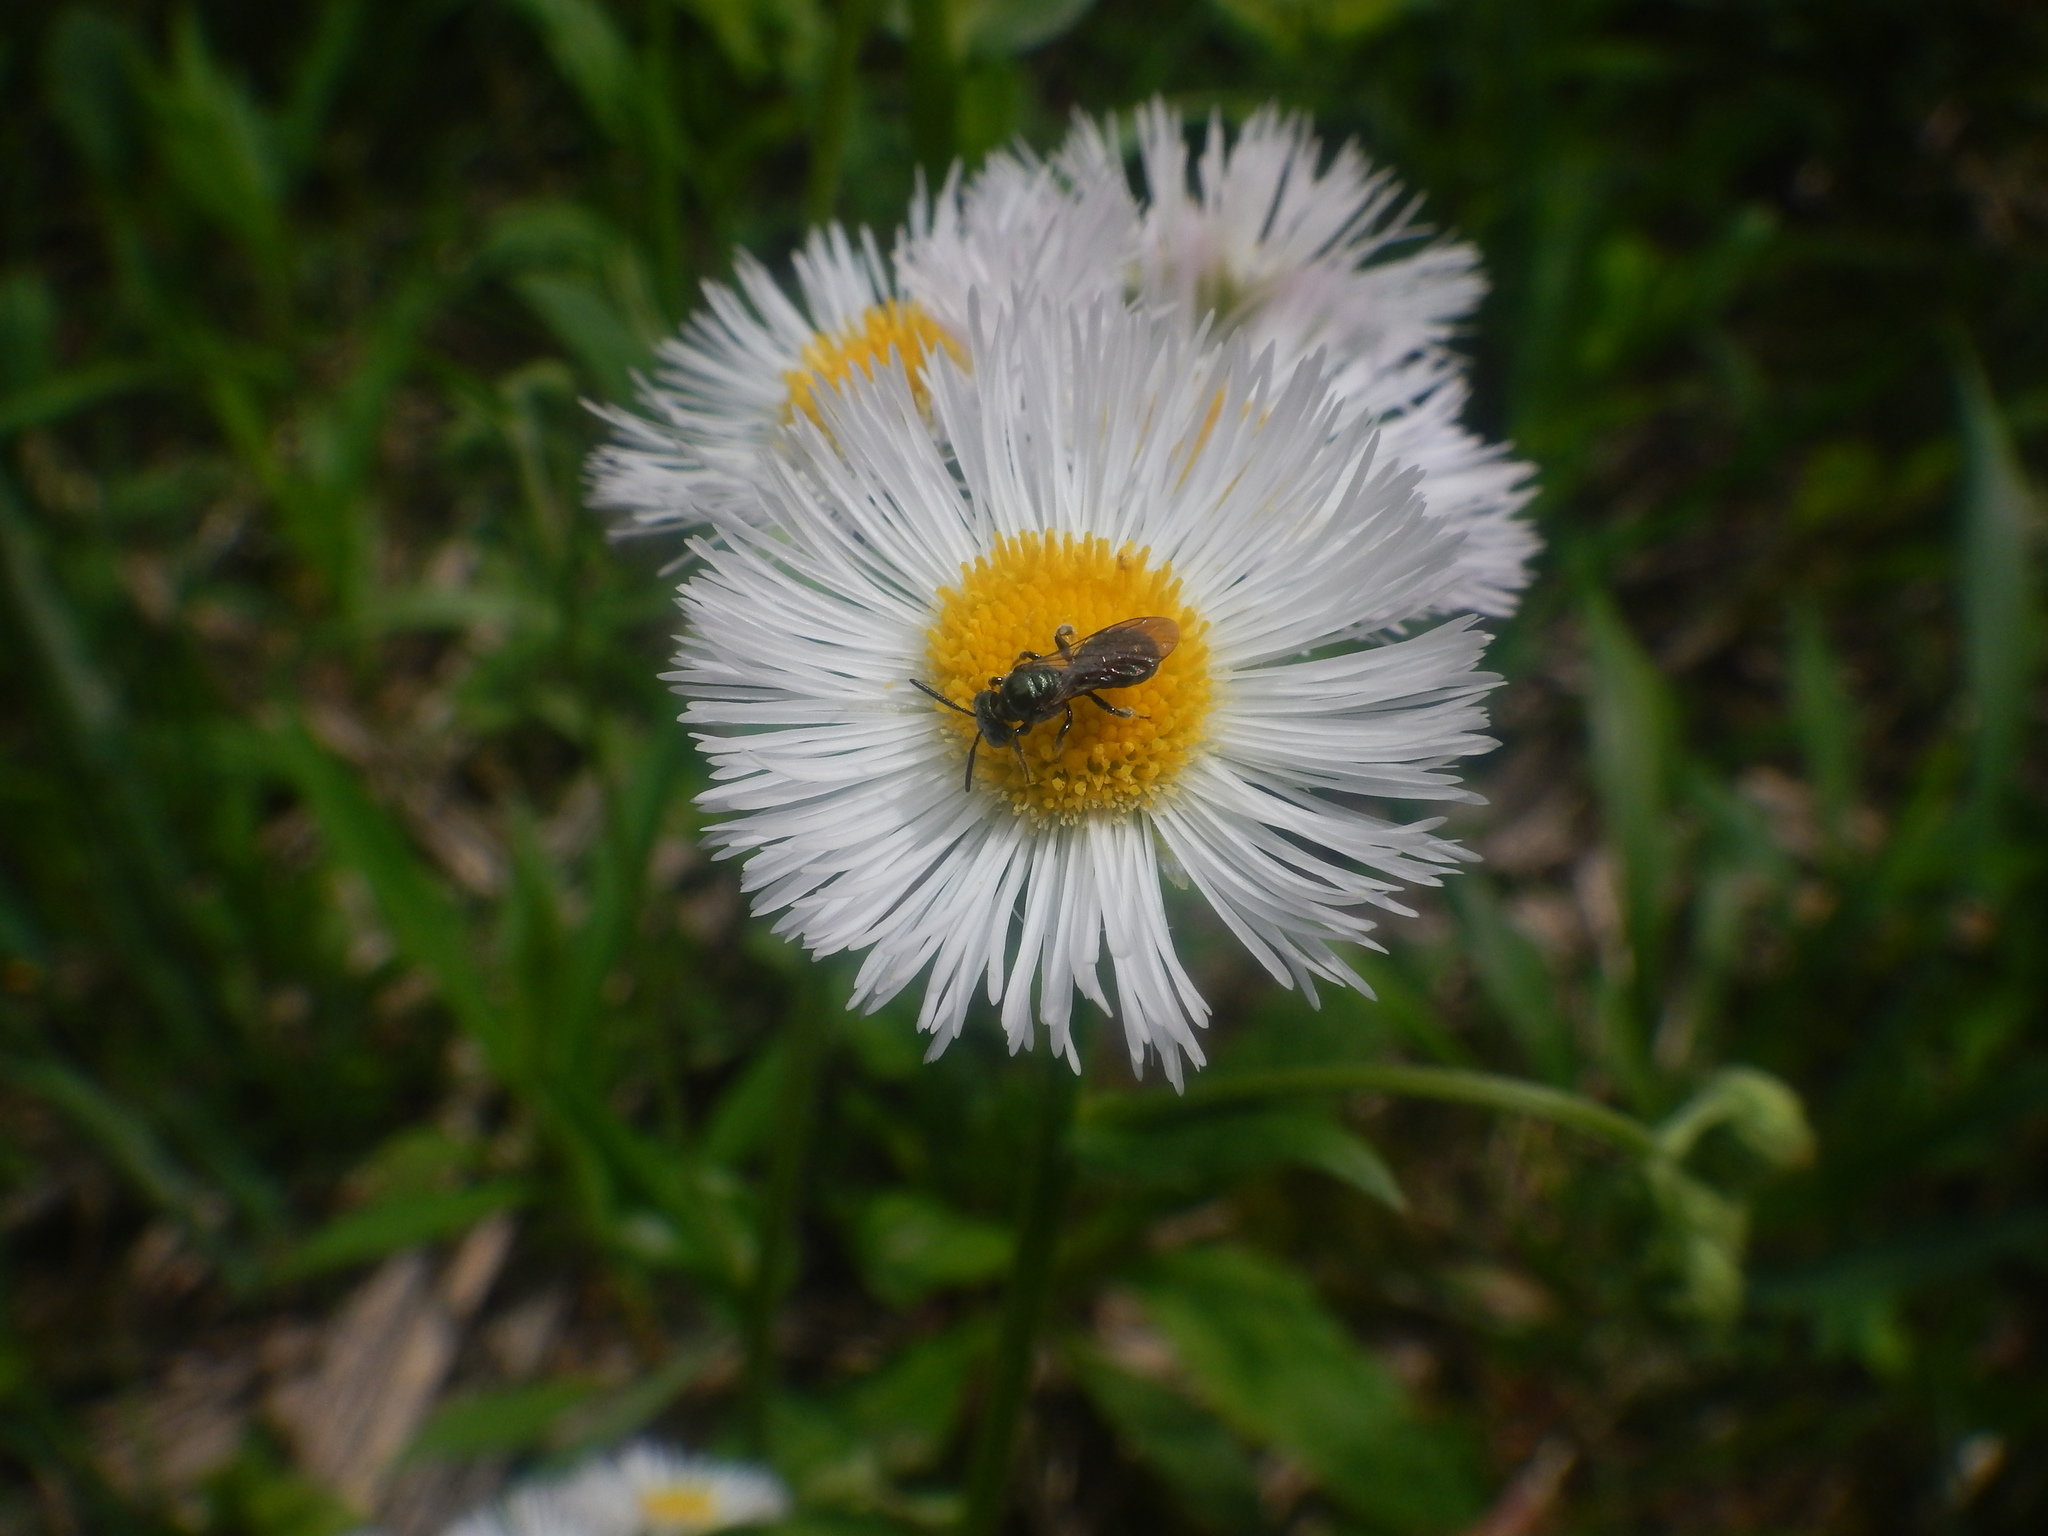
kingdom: Animalia
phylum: Arthropoda
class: Insecta
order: Hymenoptera
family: Apidae
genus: Zadontomerus
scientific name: Zadontomerus
